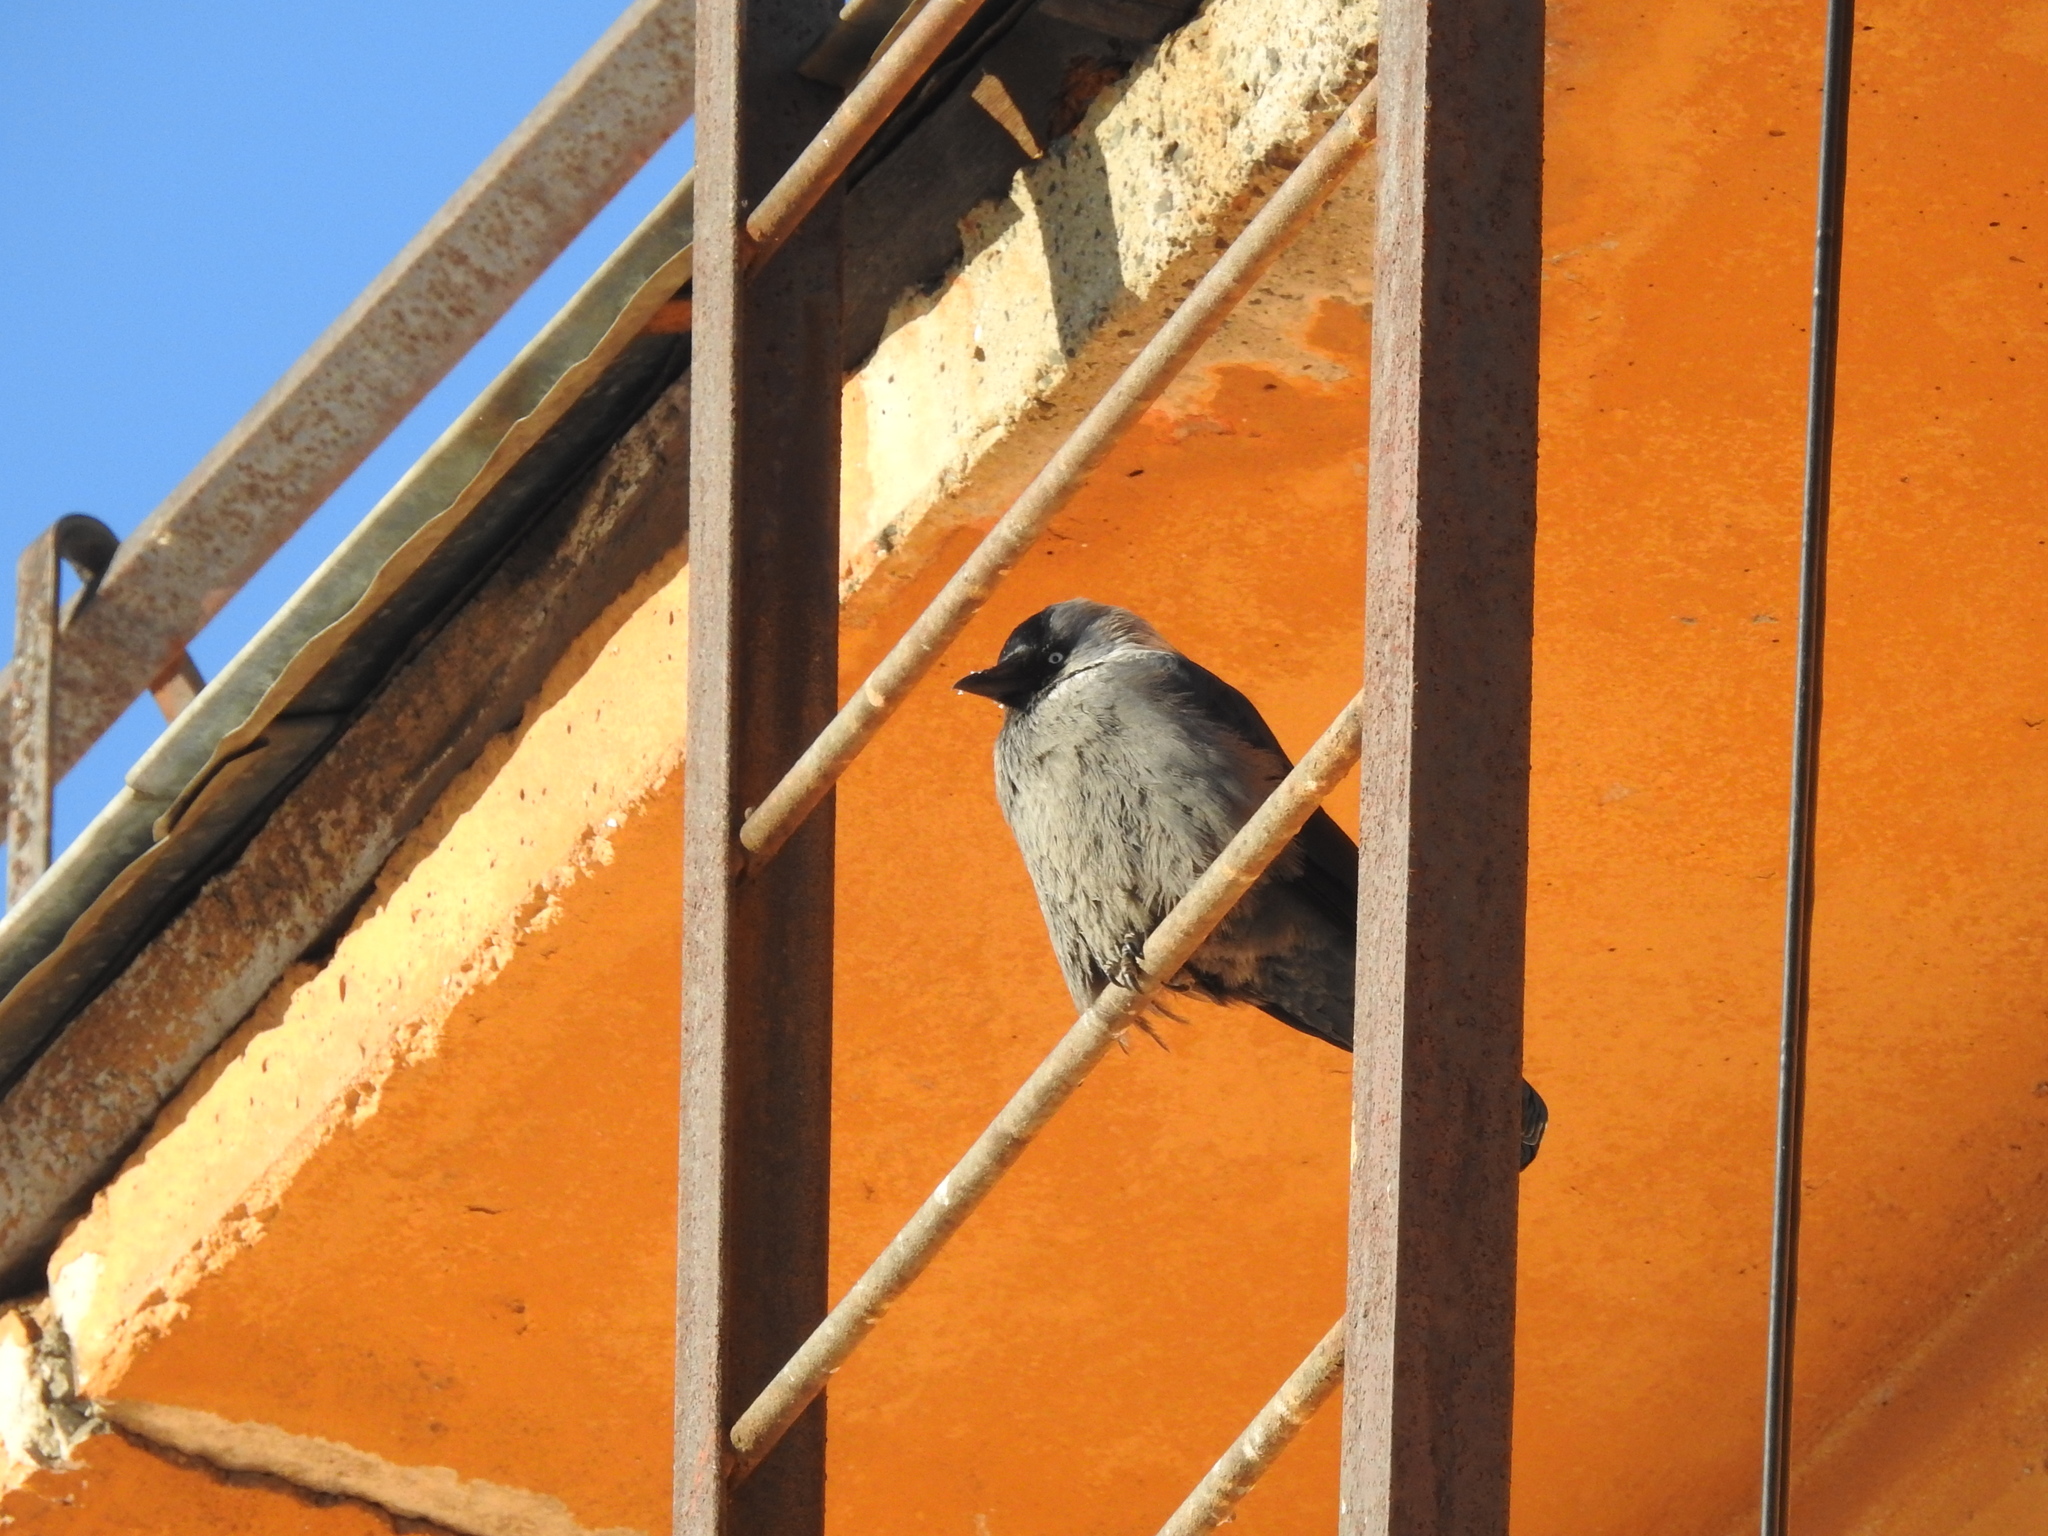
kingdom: Animalia
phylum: Chordata
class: Aves
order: Passeriformes
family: Corvidae
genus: Coloeus
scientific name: Coloeus monedula
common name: Western jackdaw
